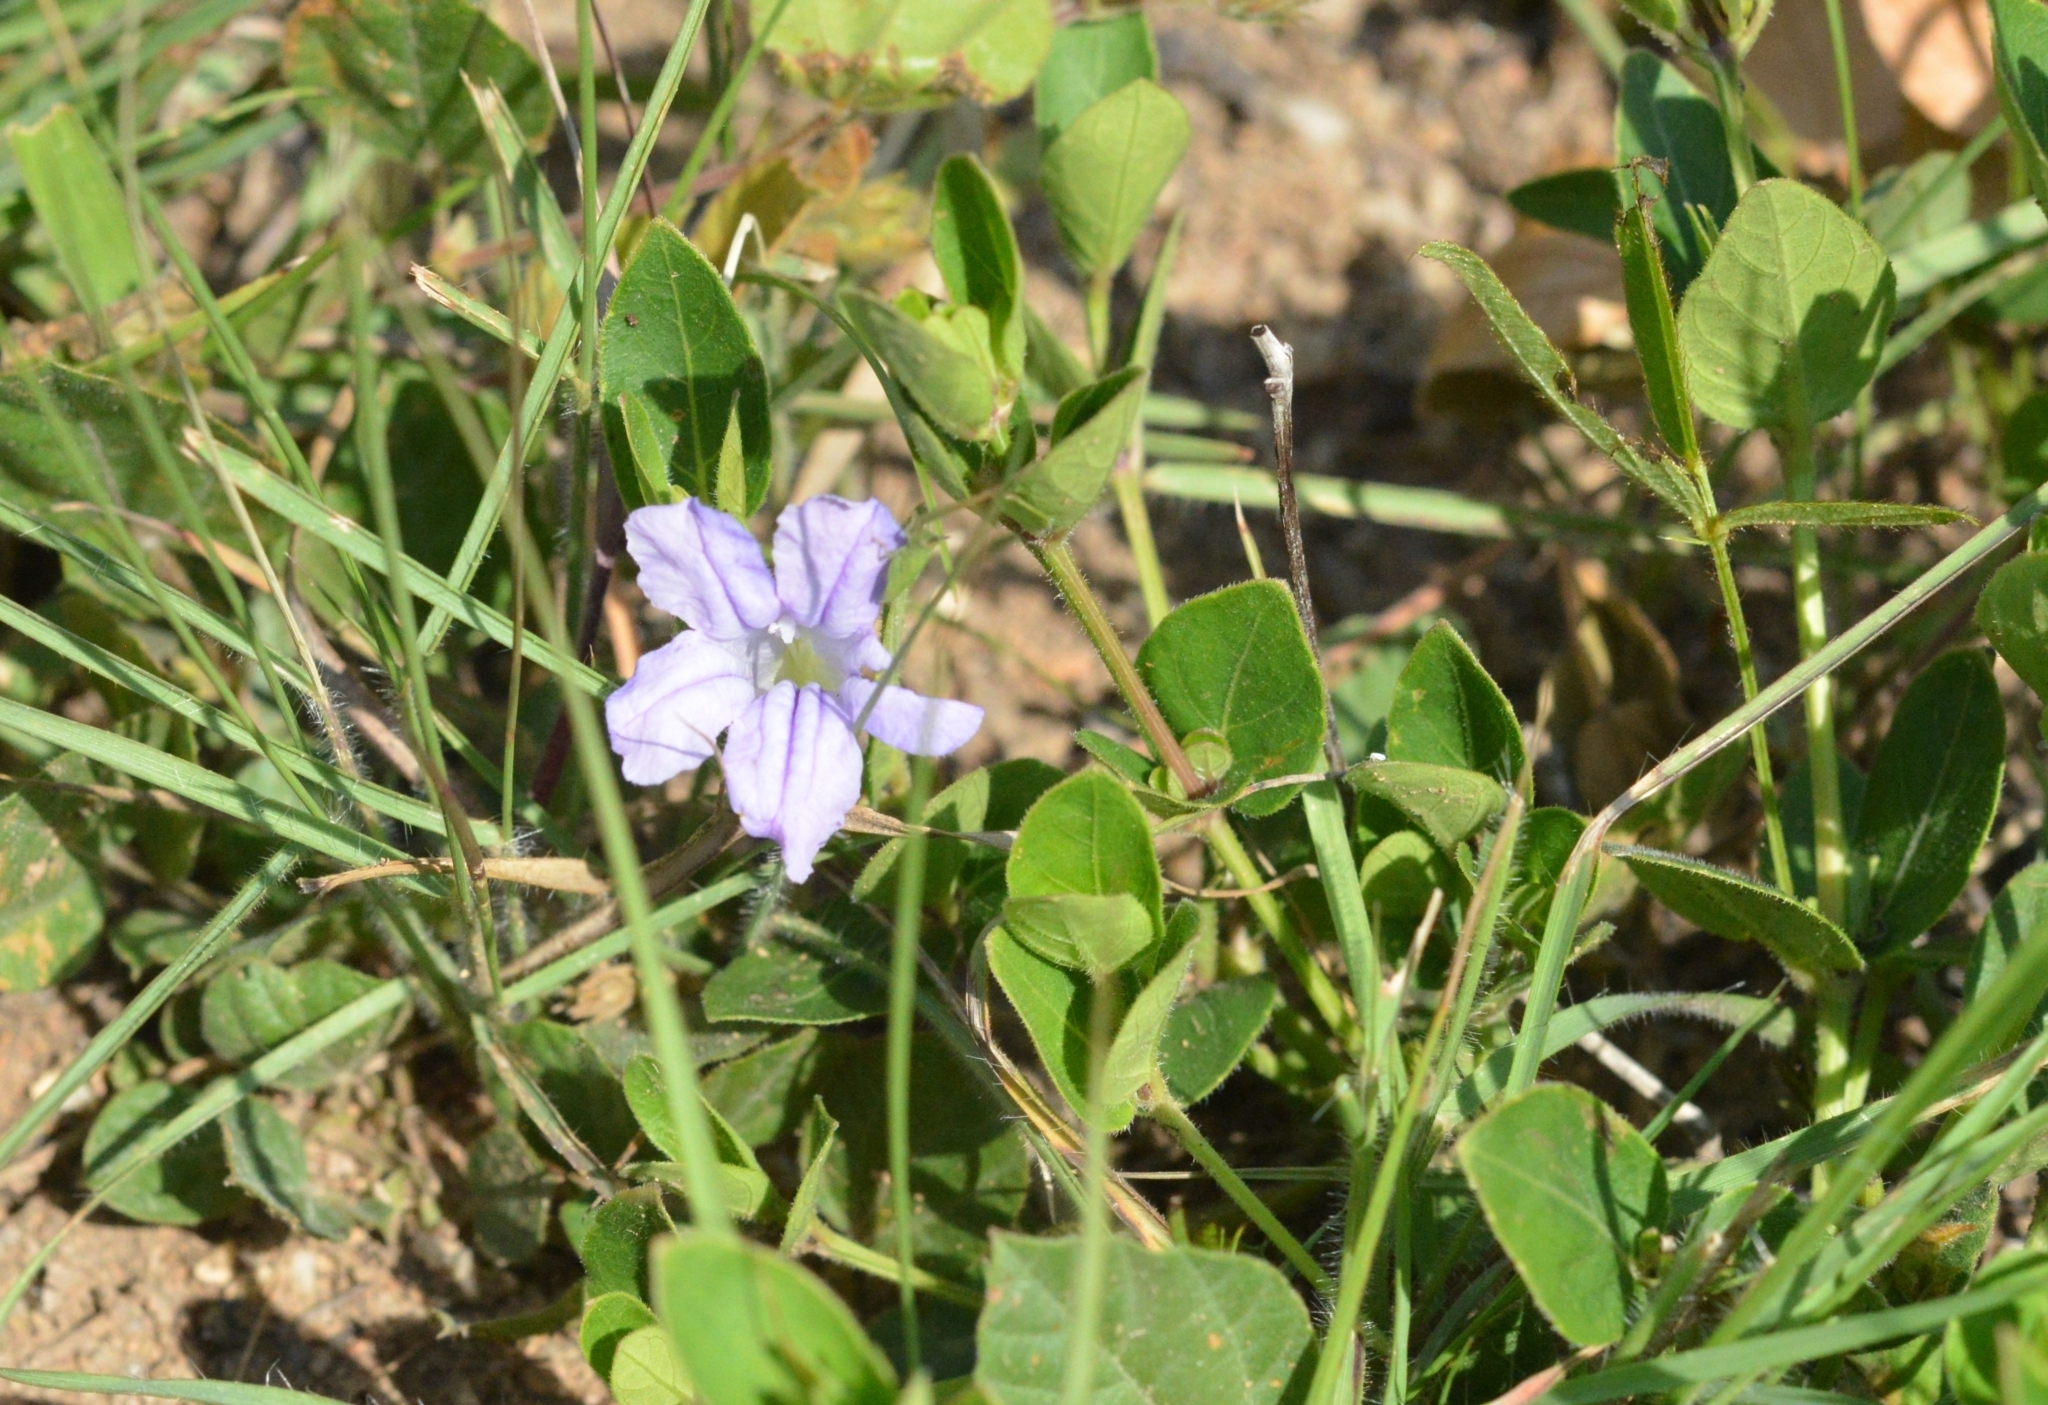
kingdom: Plantae
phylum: Tracheophyta
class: Magnoliopsida
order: Lamiales
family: Acanthaceae
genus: Ruellia
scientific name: Ruellia cordata
